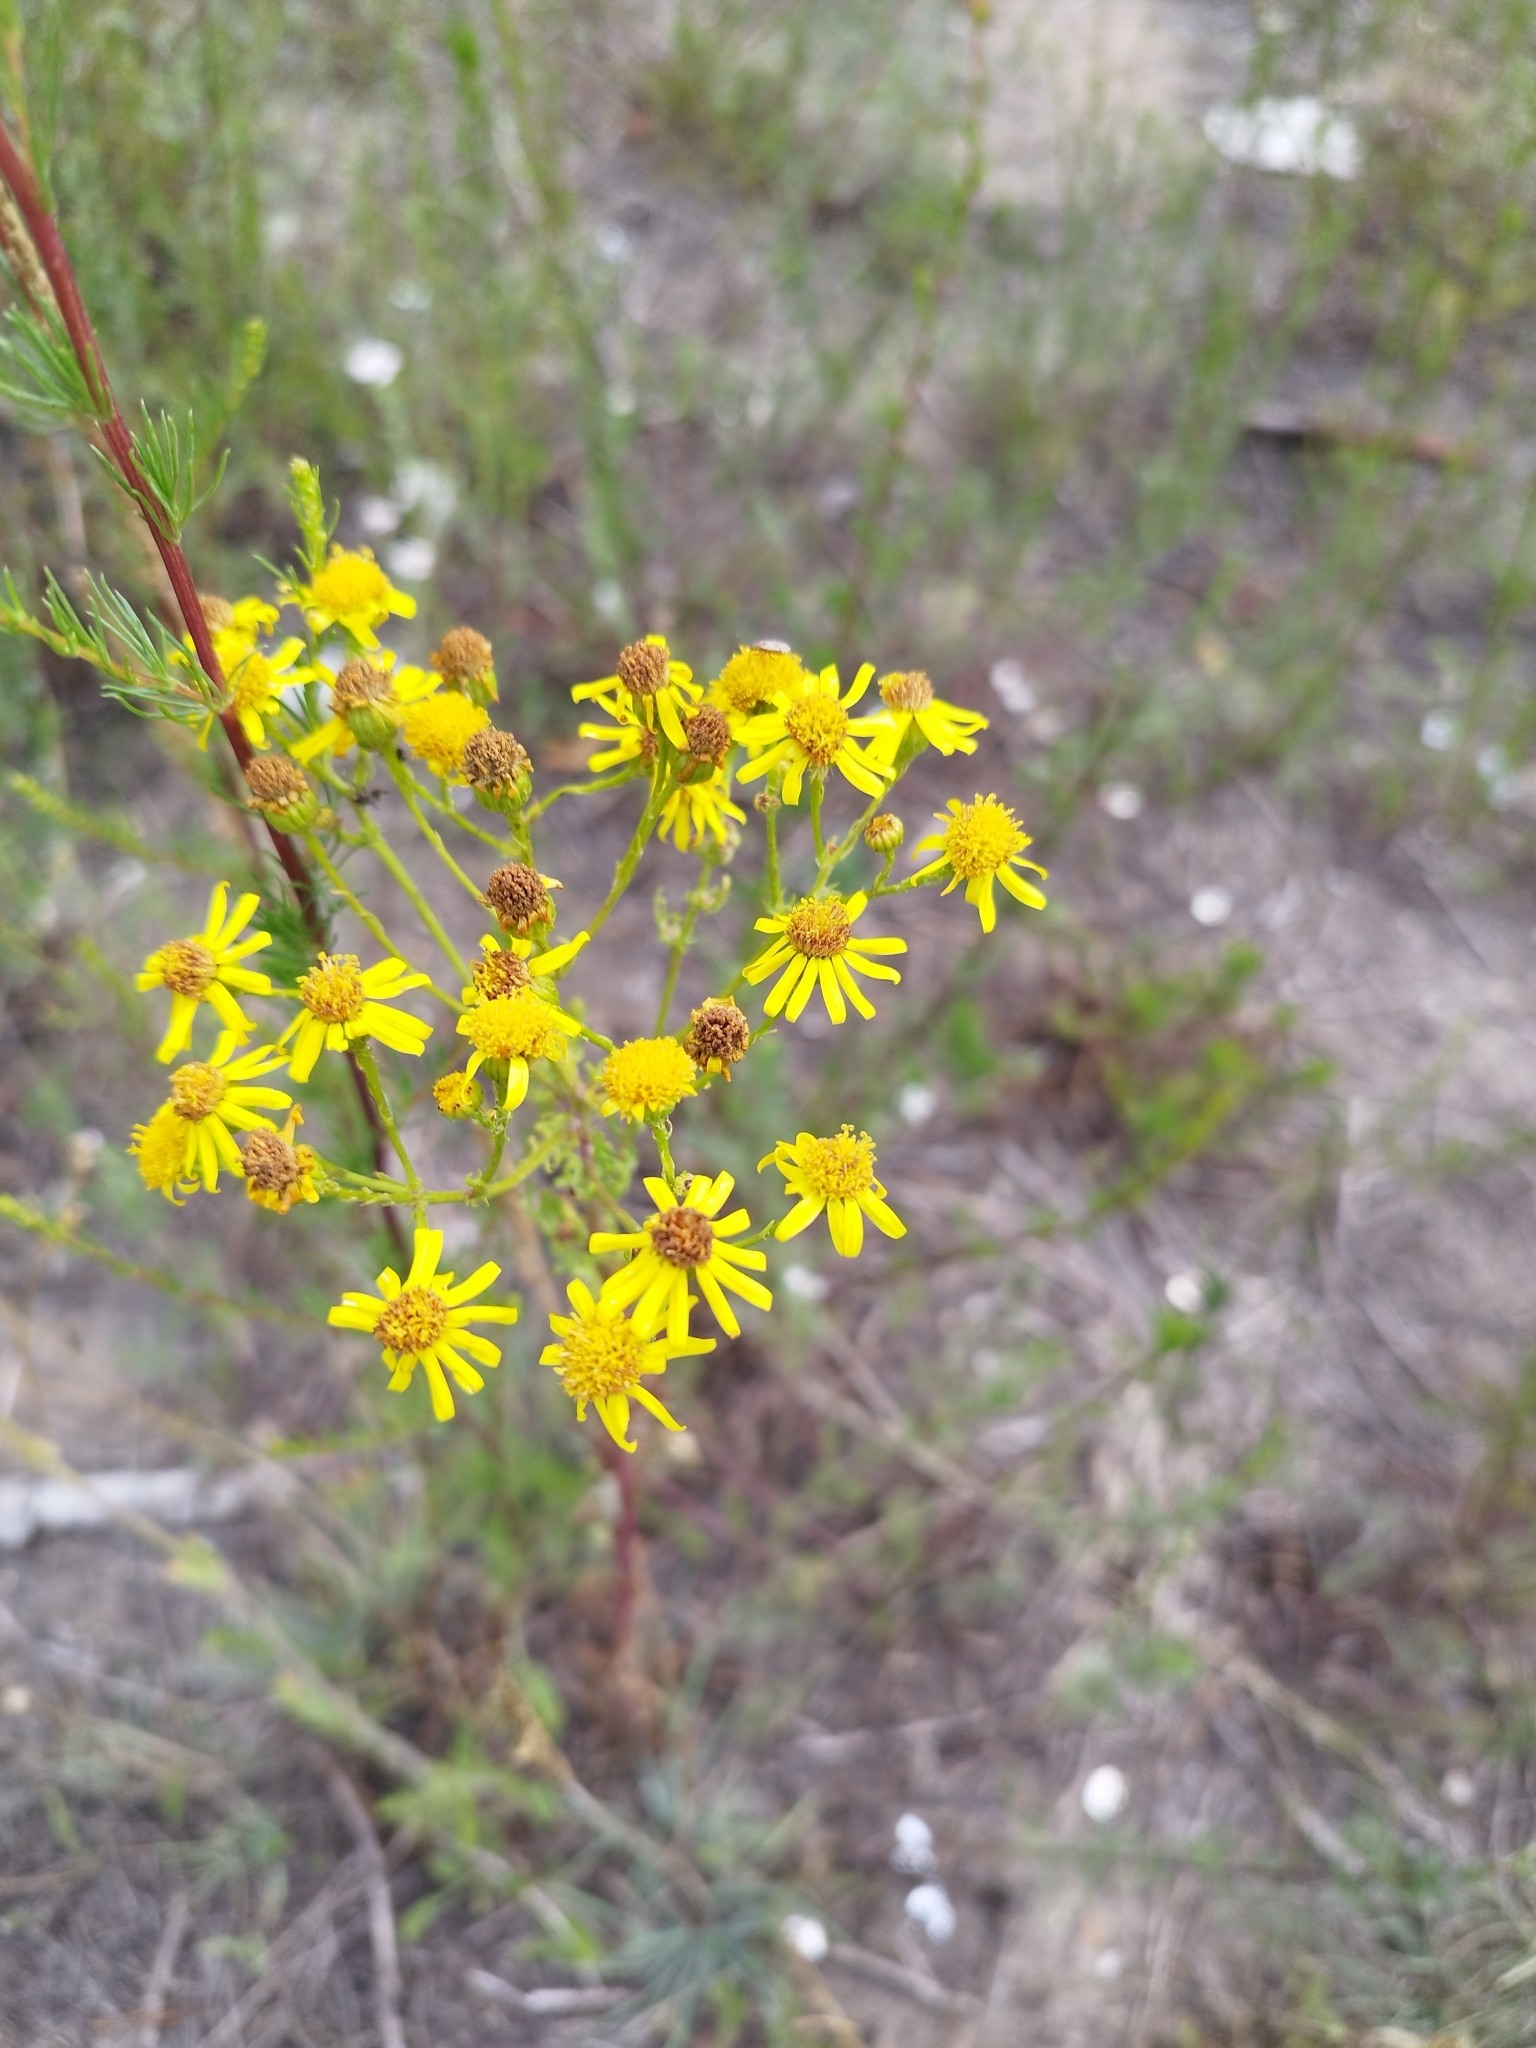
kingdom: Plantae
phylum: Tracheophyta
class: Magnoliopsida
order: Asterales
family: Asteraceae
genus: Jacobaea
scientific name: Jacobaea vulgaris
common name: Stinking willie
